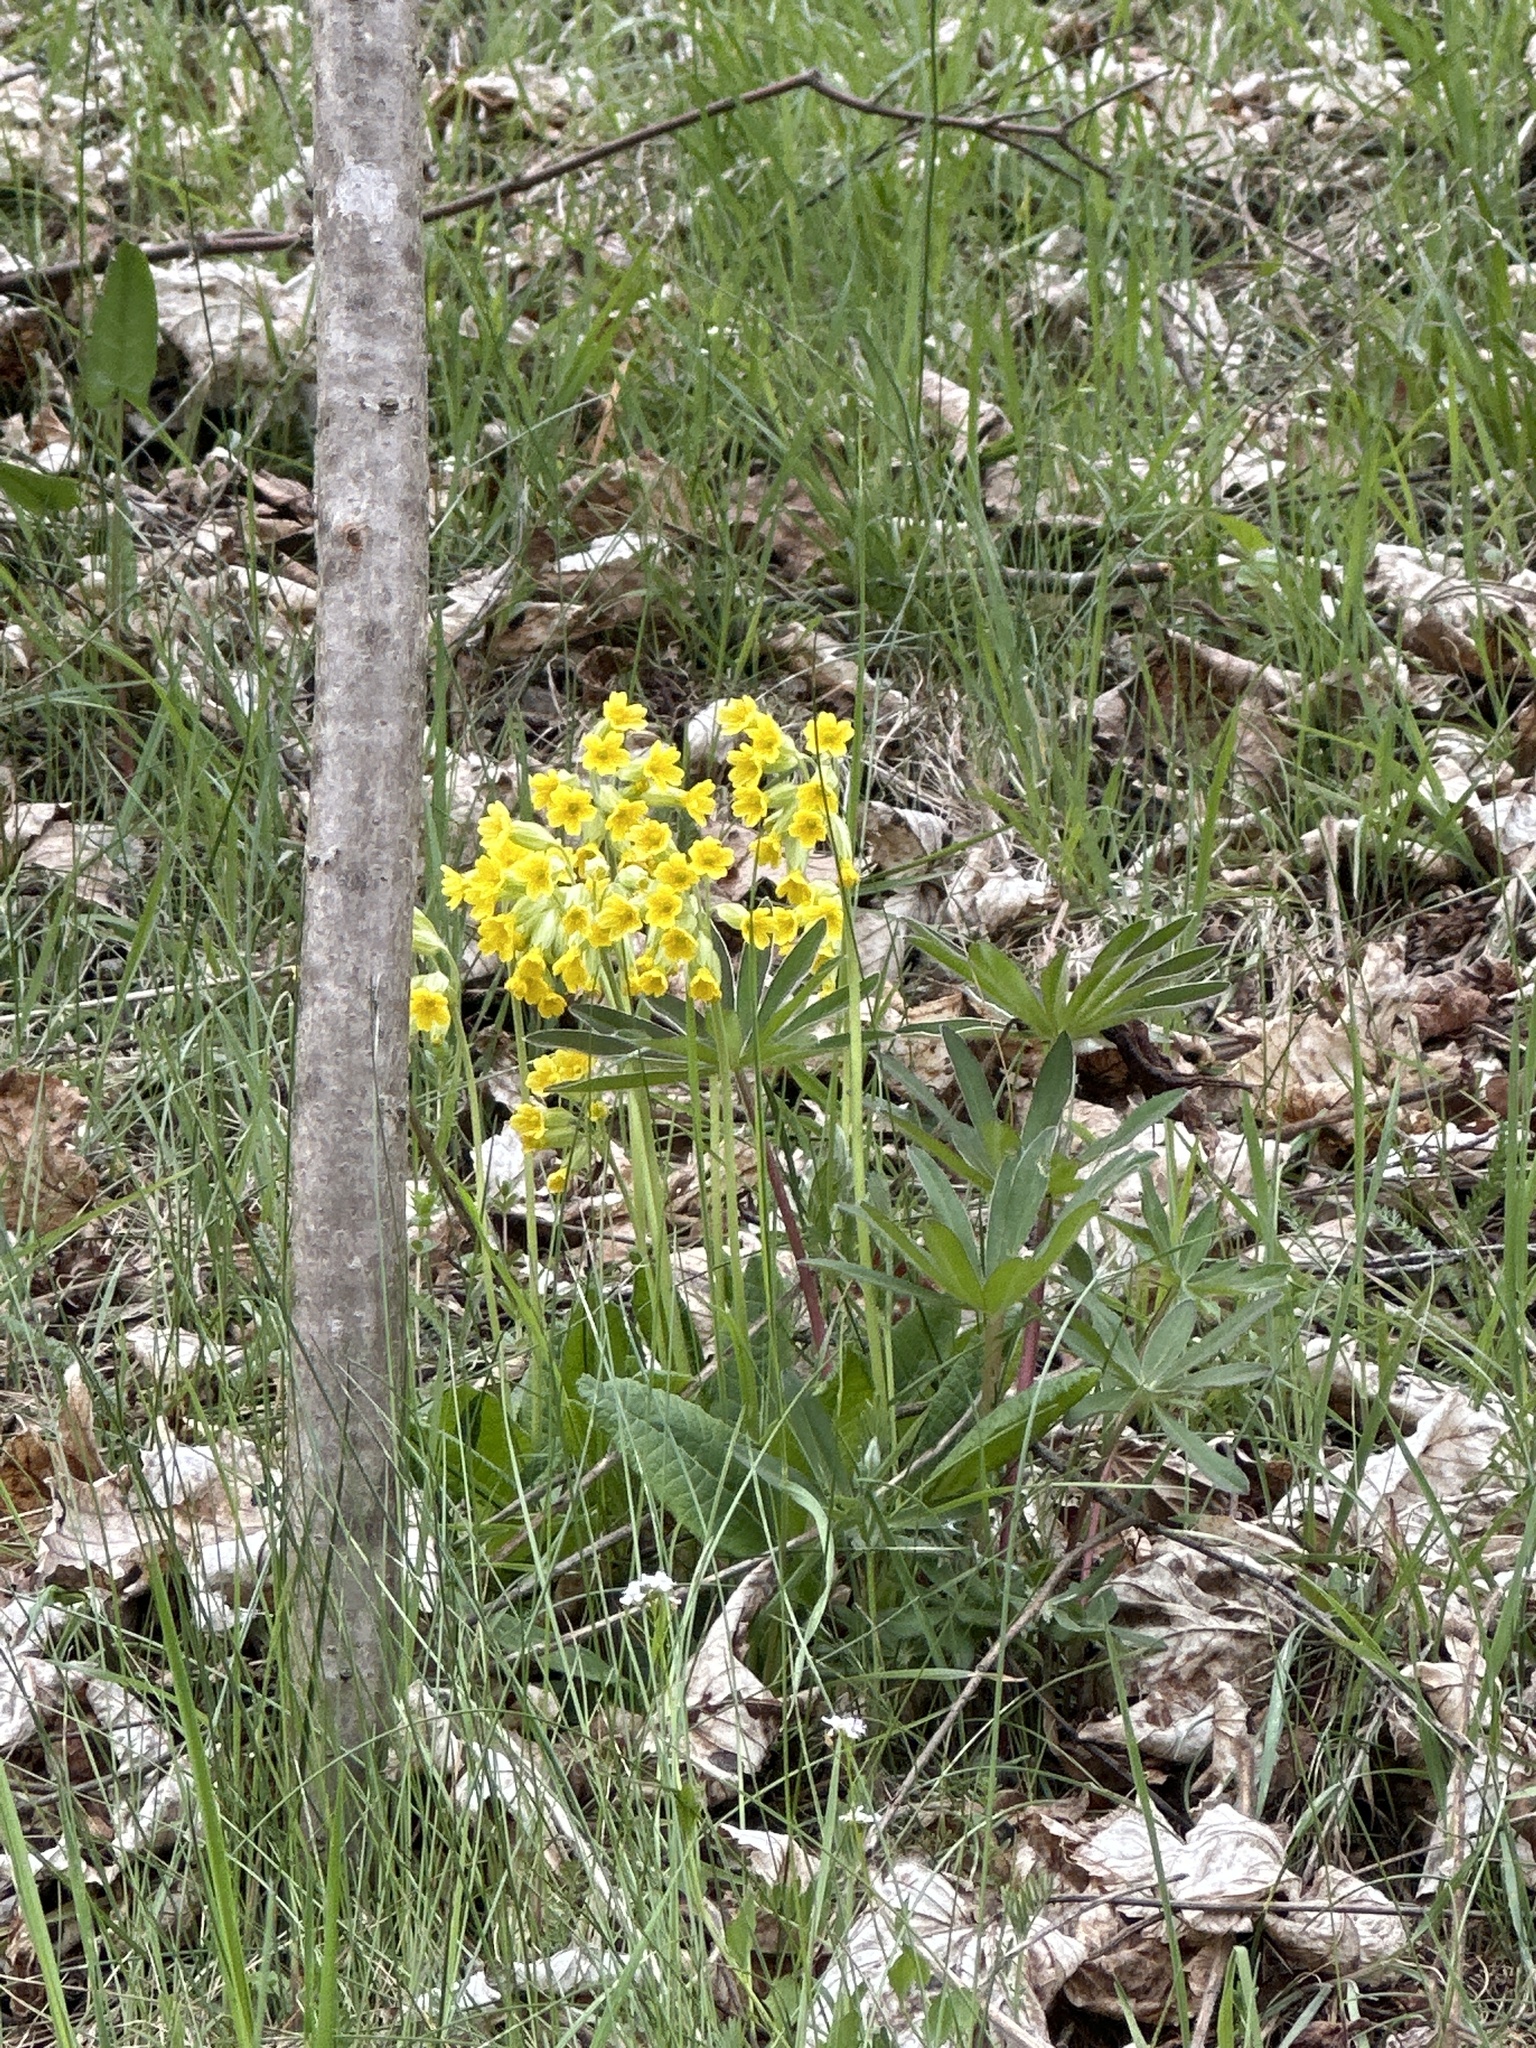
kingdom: Plantae
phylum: Tracheophyta
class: Magnoliopsida
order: Ericales
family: Primulaceae
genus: Primula
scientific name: Primula veris
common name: Cowslip
